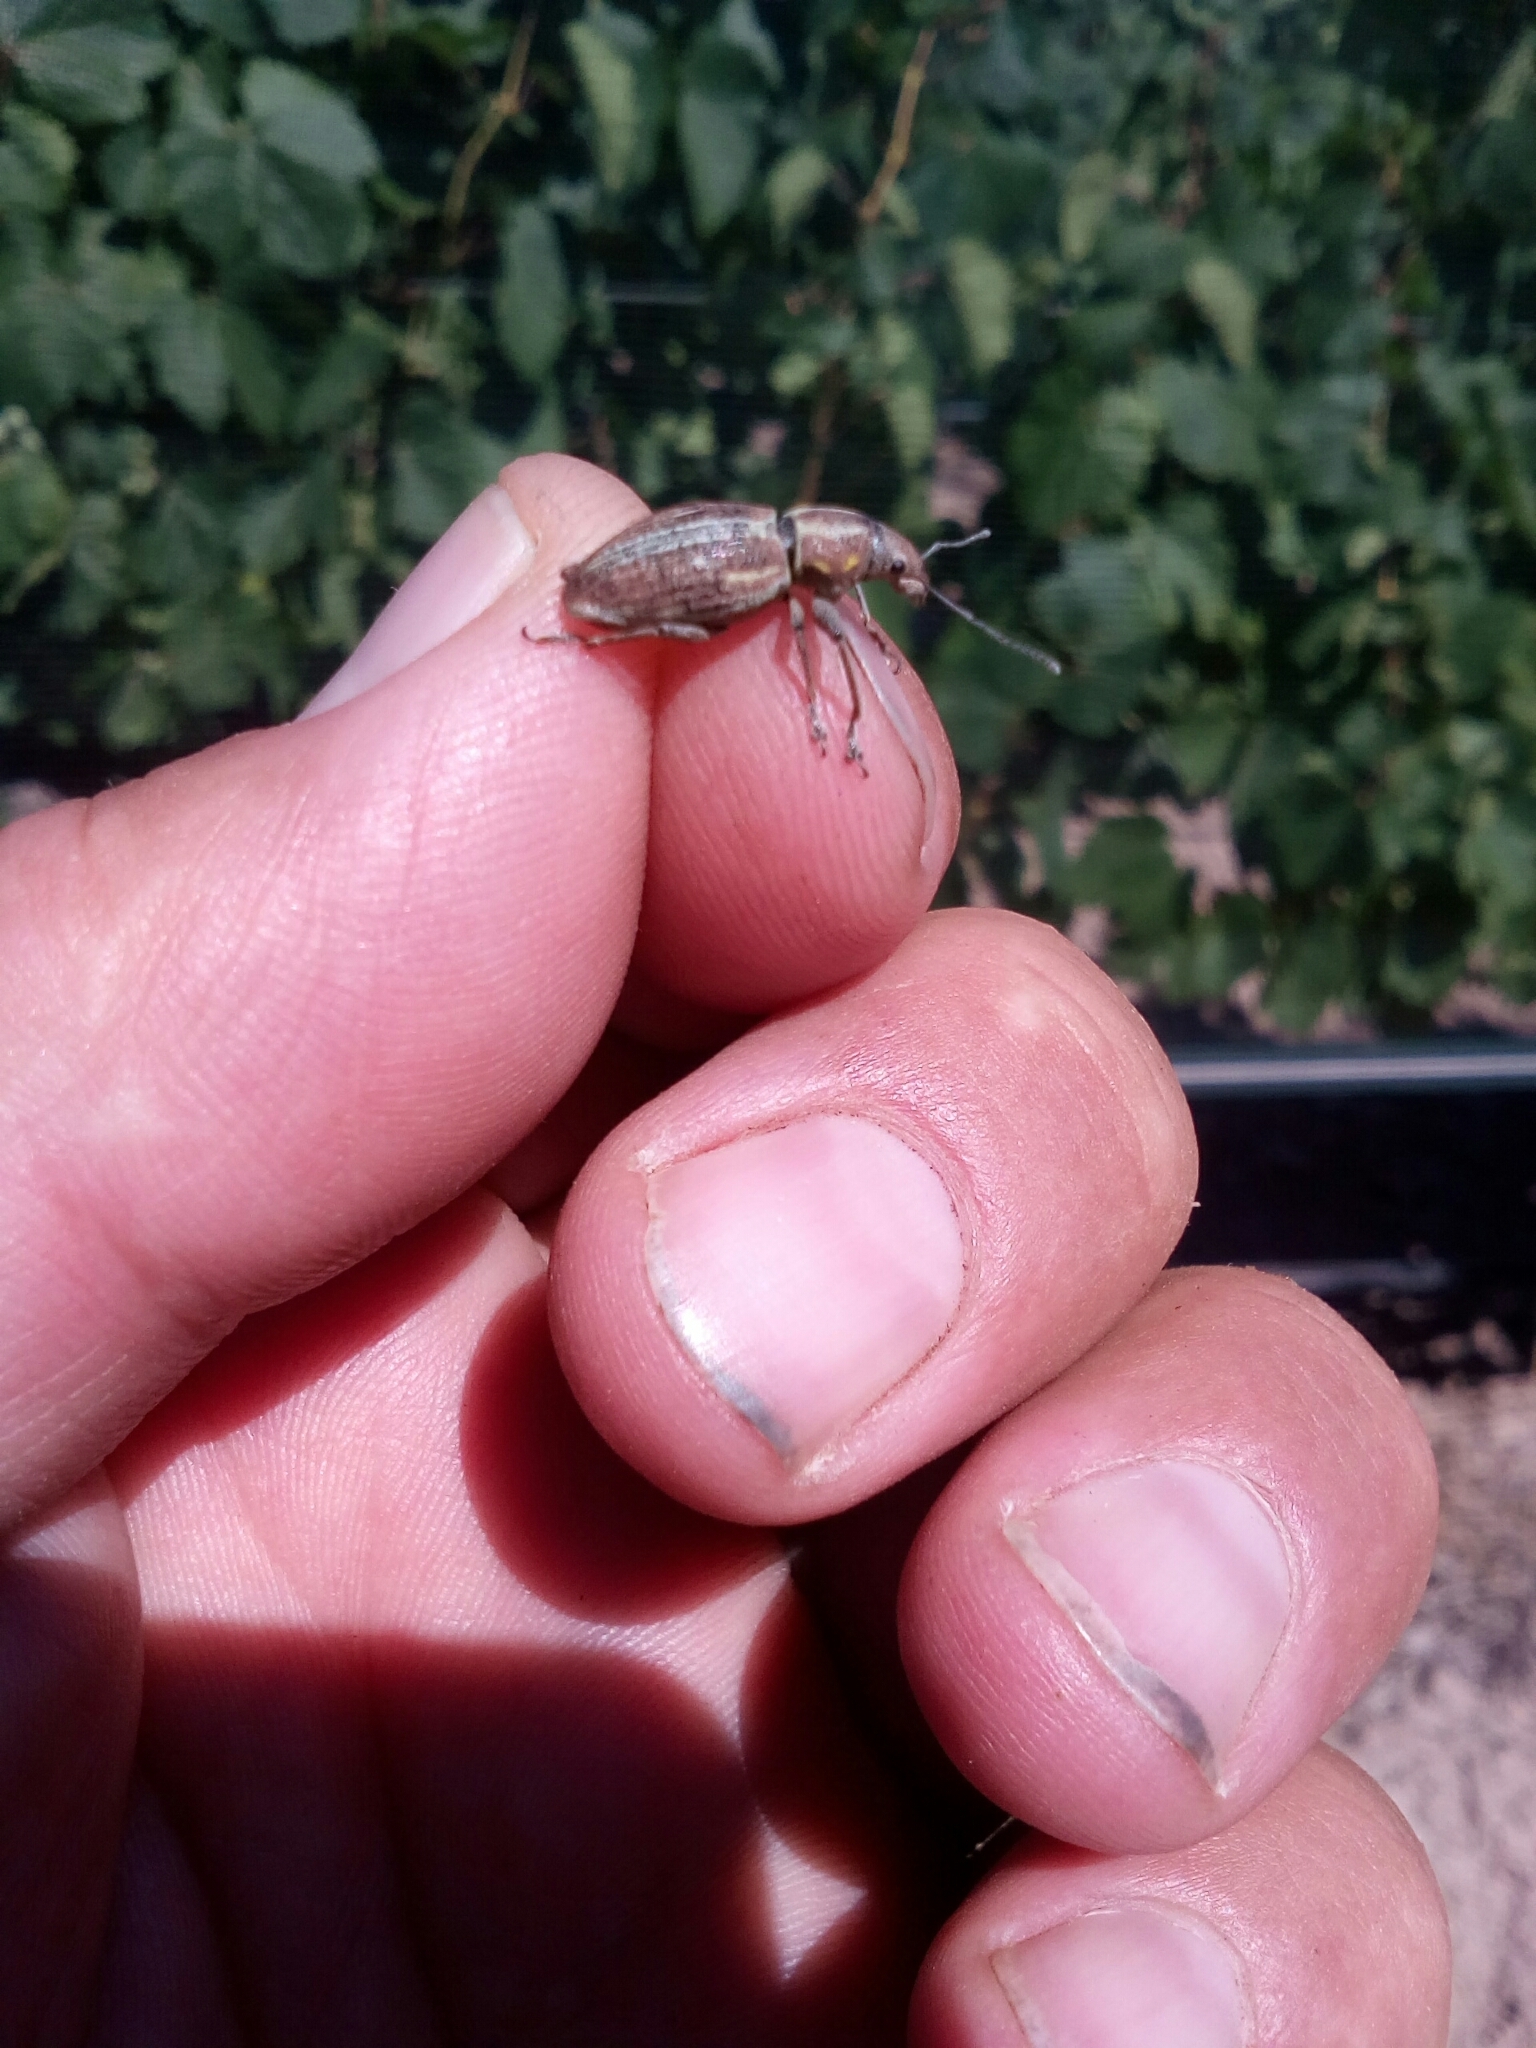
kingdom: Animalia
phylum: Arthropoda
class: Insecta
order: Coleoptera
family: Curculionidae
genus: Naupactus
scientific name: Naupactus xanthographus
